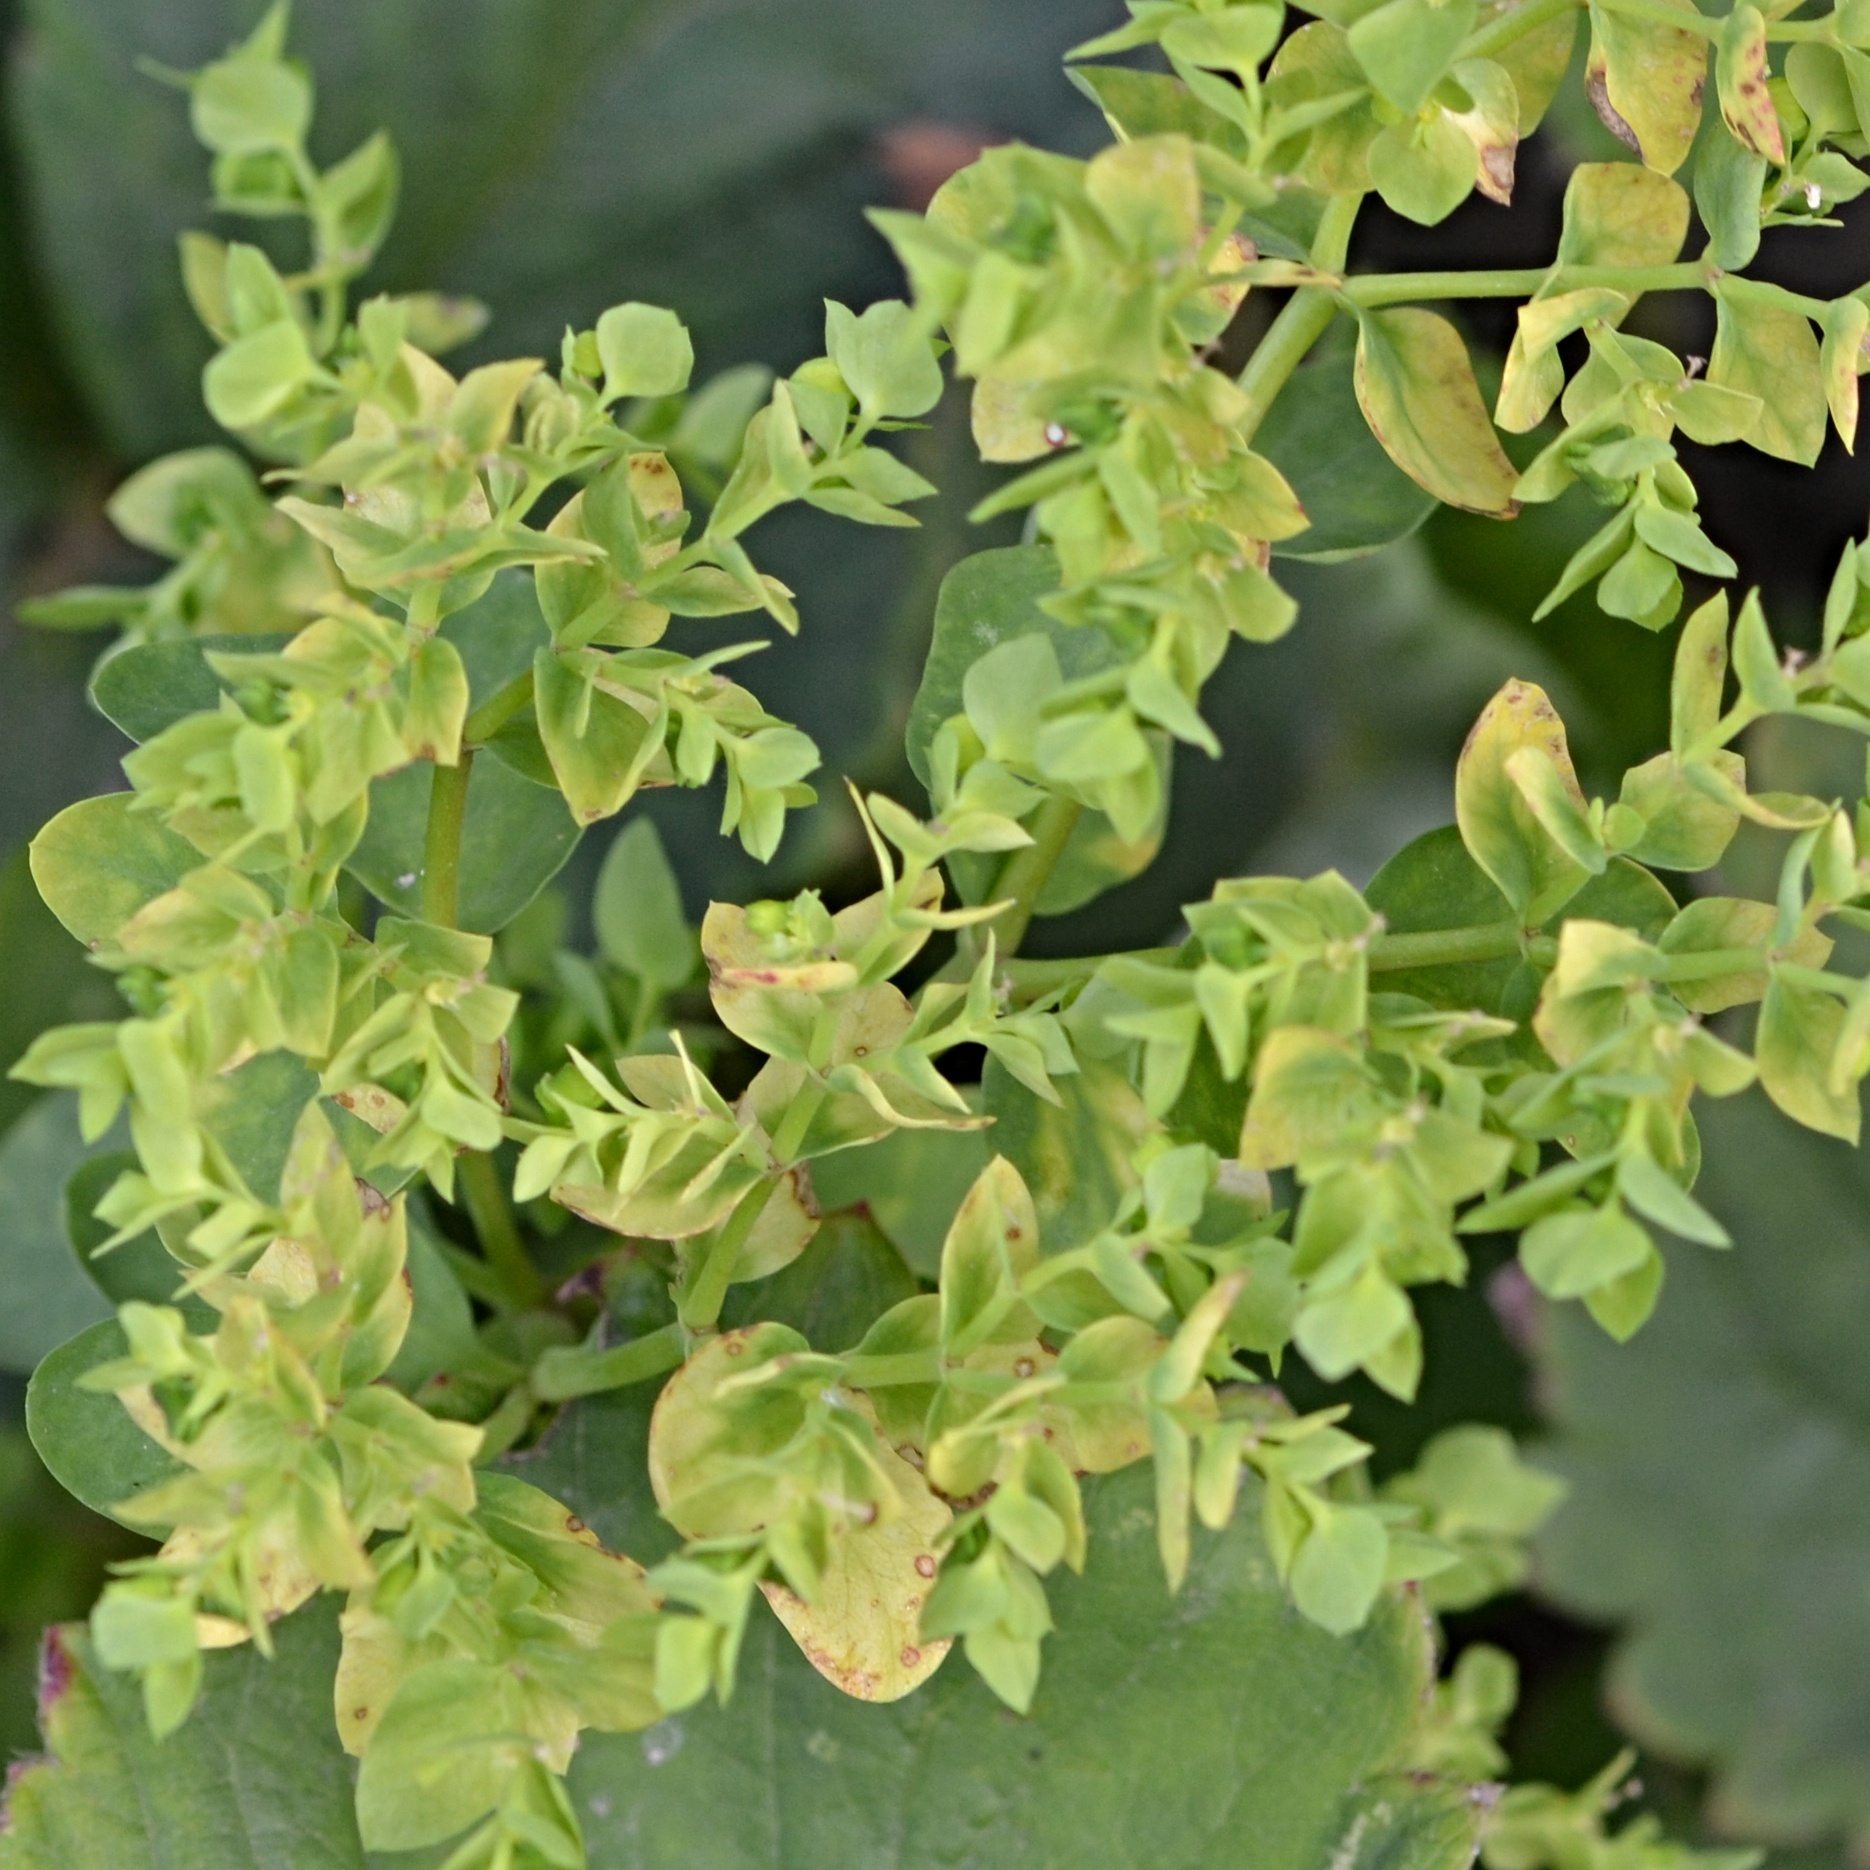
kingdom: Plantae
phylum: Tracheophyta
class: Magnoliopsida
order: Malpighiales
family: Euphorbiaceae
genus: Euphorbia
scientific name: Euphorbia peplus
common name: Petty spurge
